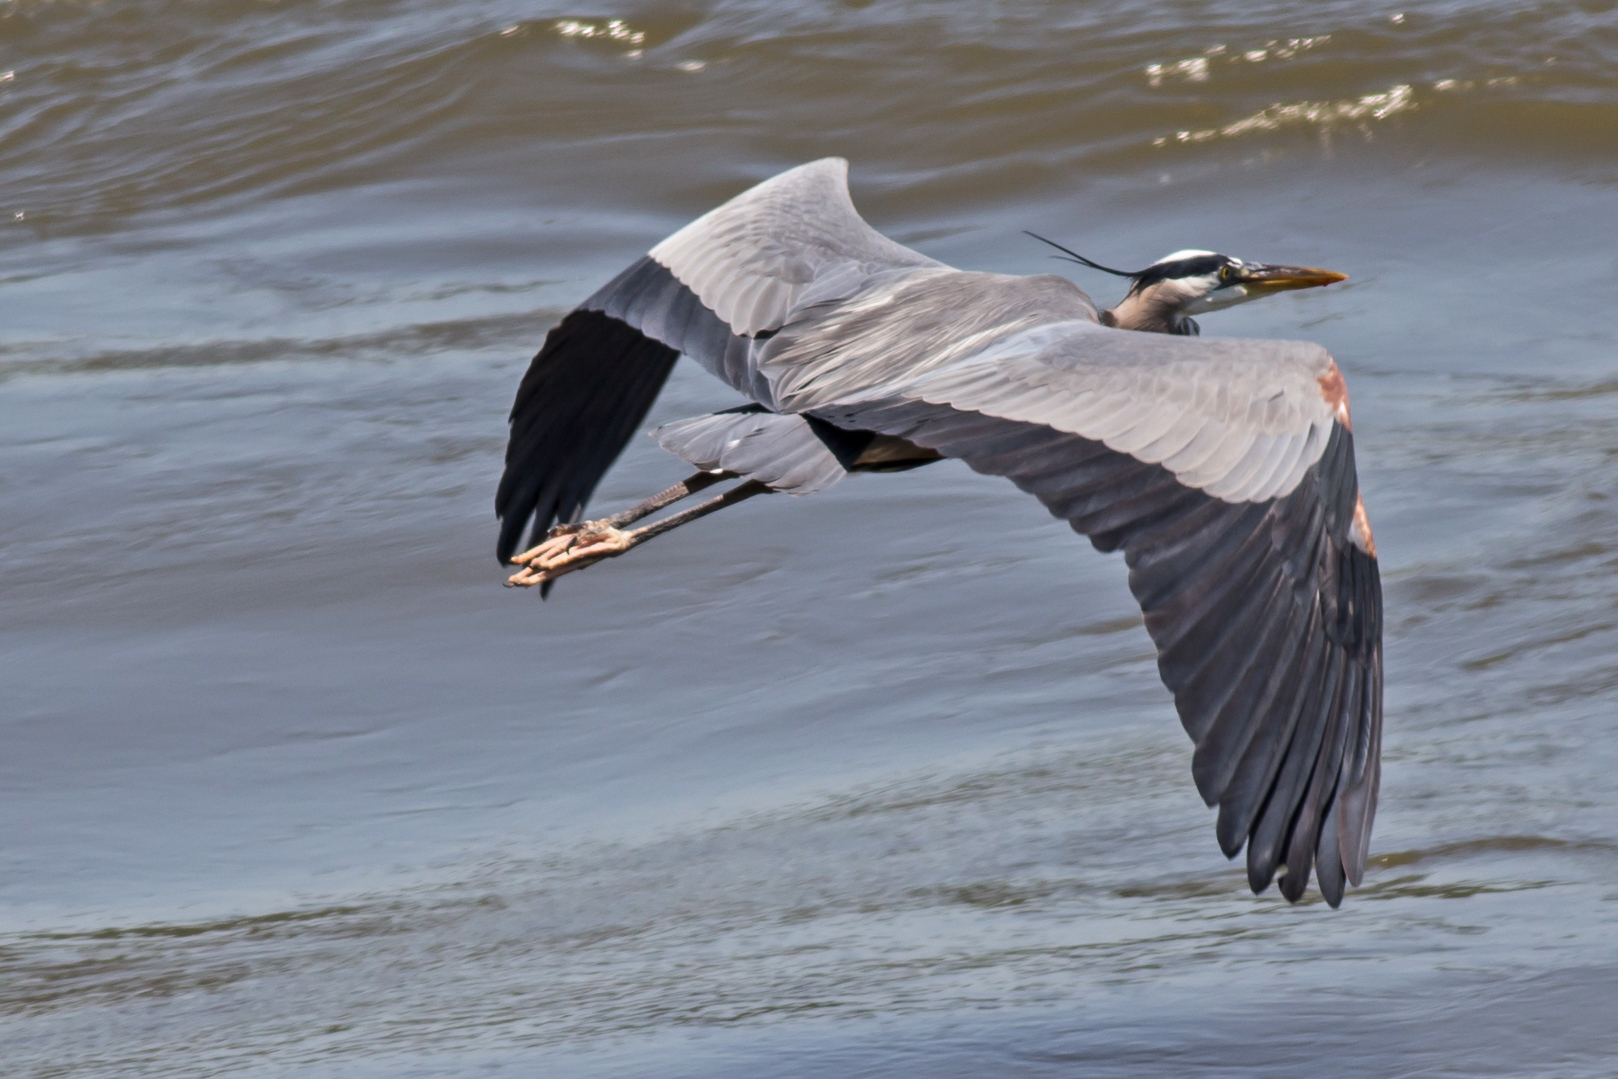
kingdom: Animalia
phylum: Chordata
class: Aves
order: Pelecaniformes
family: Ardeidae
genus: Ardea
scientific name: Ardea herodias
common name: Great blue heron
